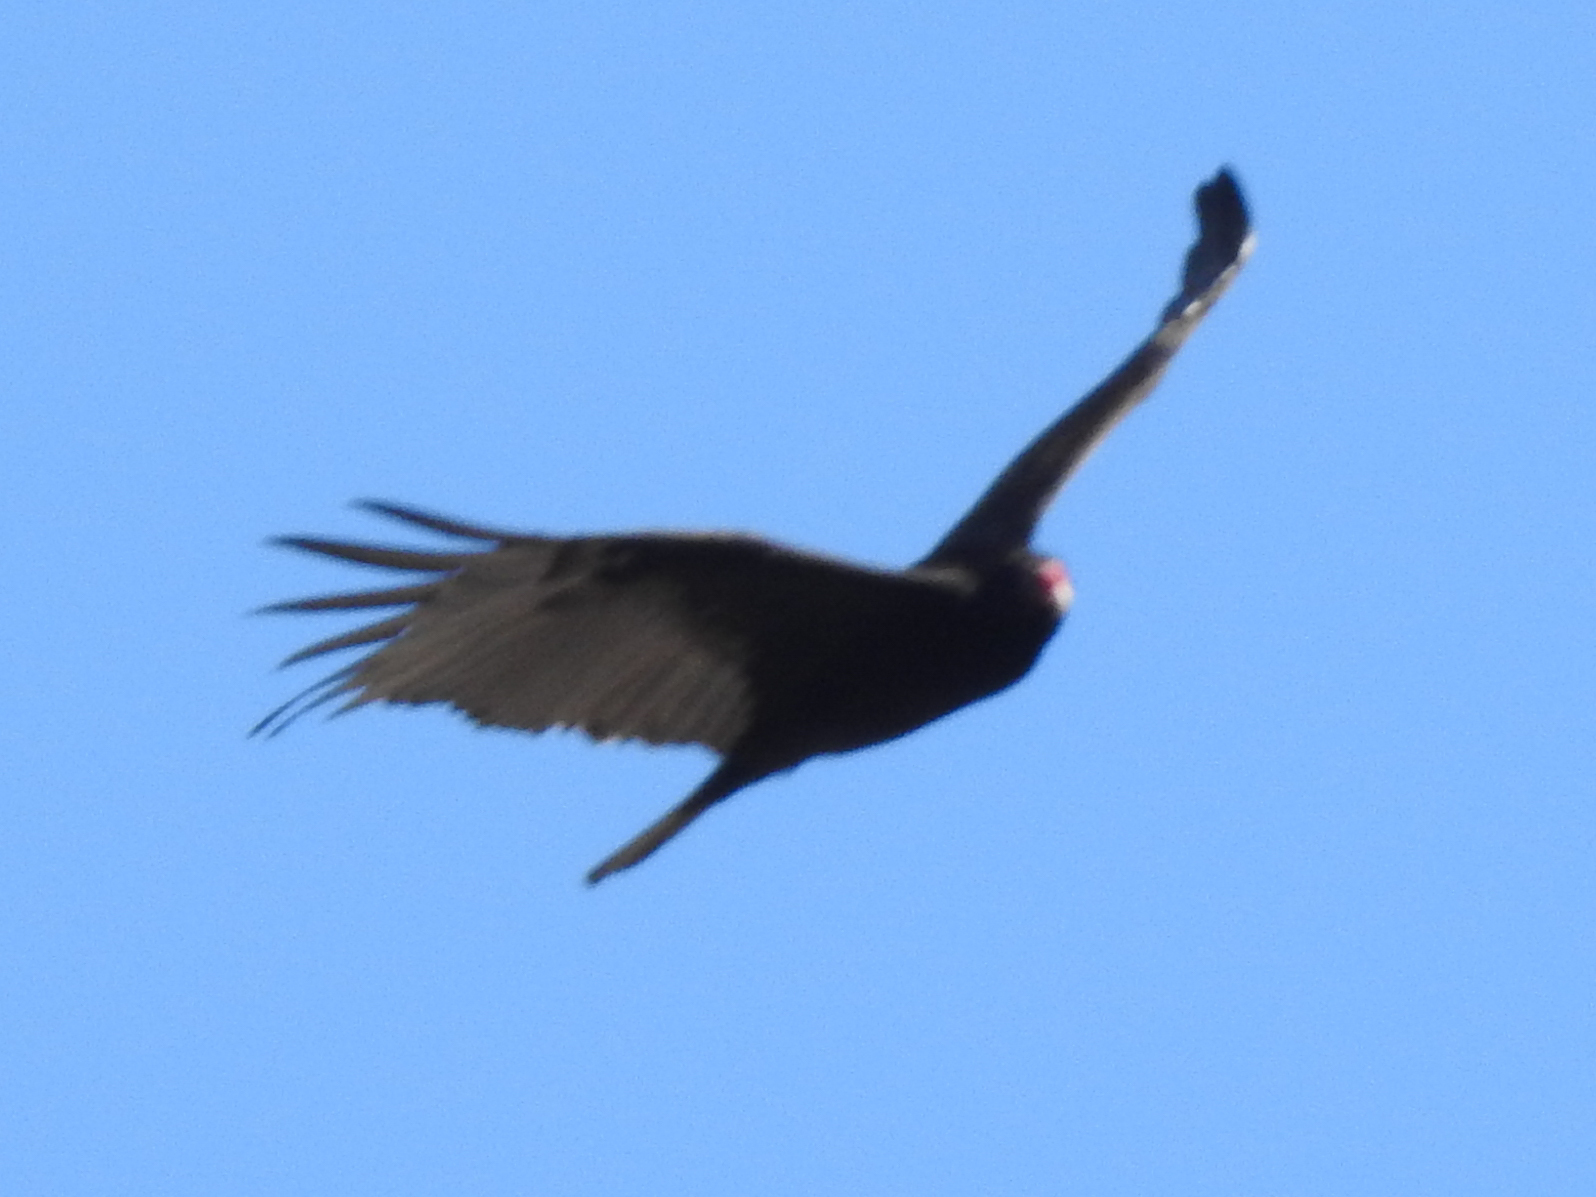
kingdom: Animalia
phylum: Chordata
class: Aves
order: Accipitriformes
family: Cathartidae
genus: Cathartes
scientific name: Cathartes aura
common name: Turkey vulture
